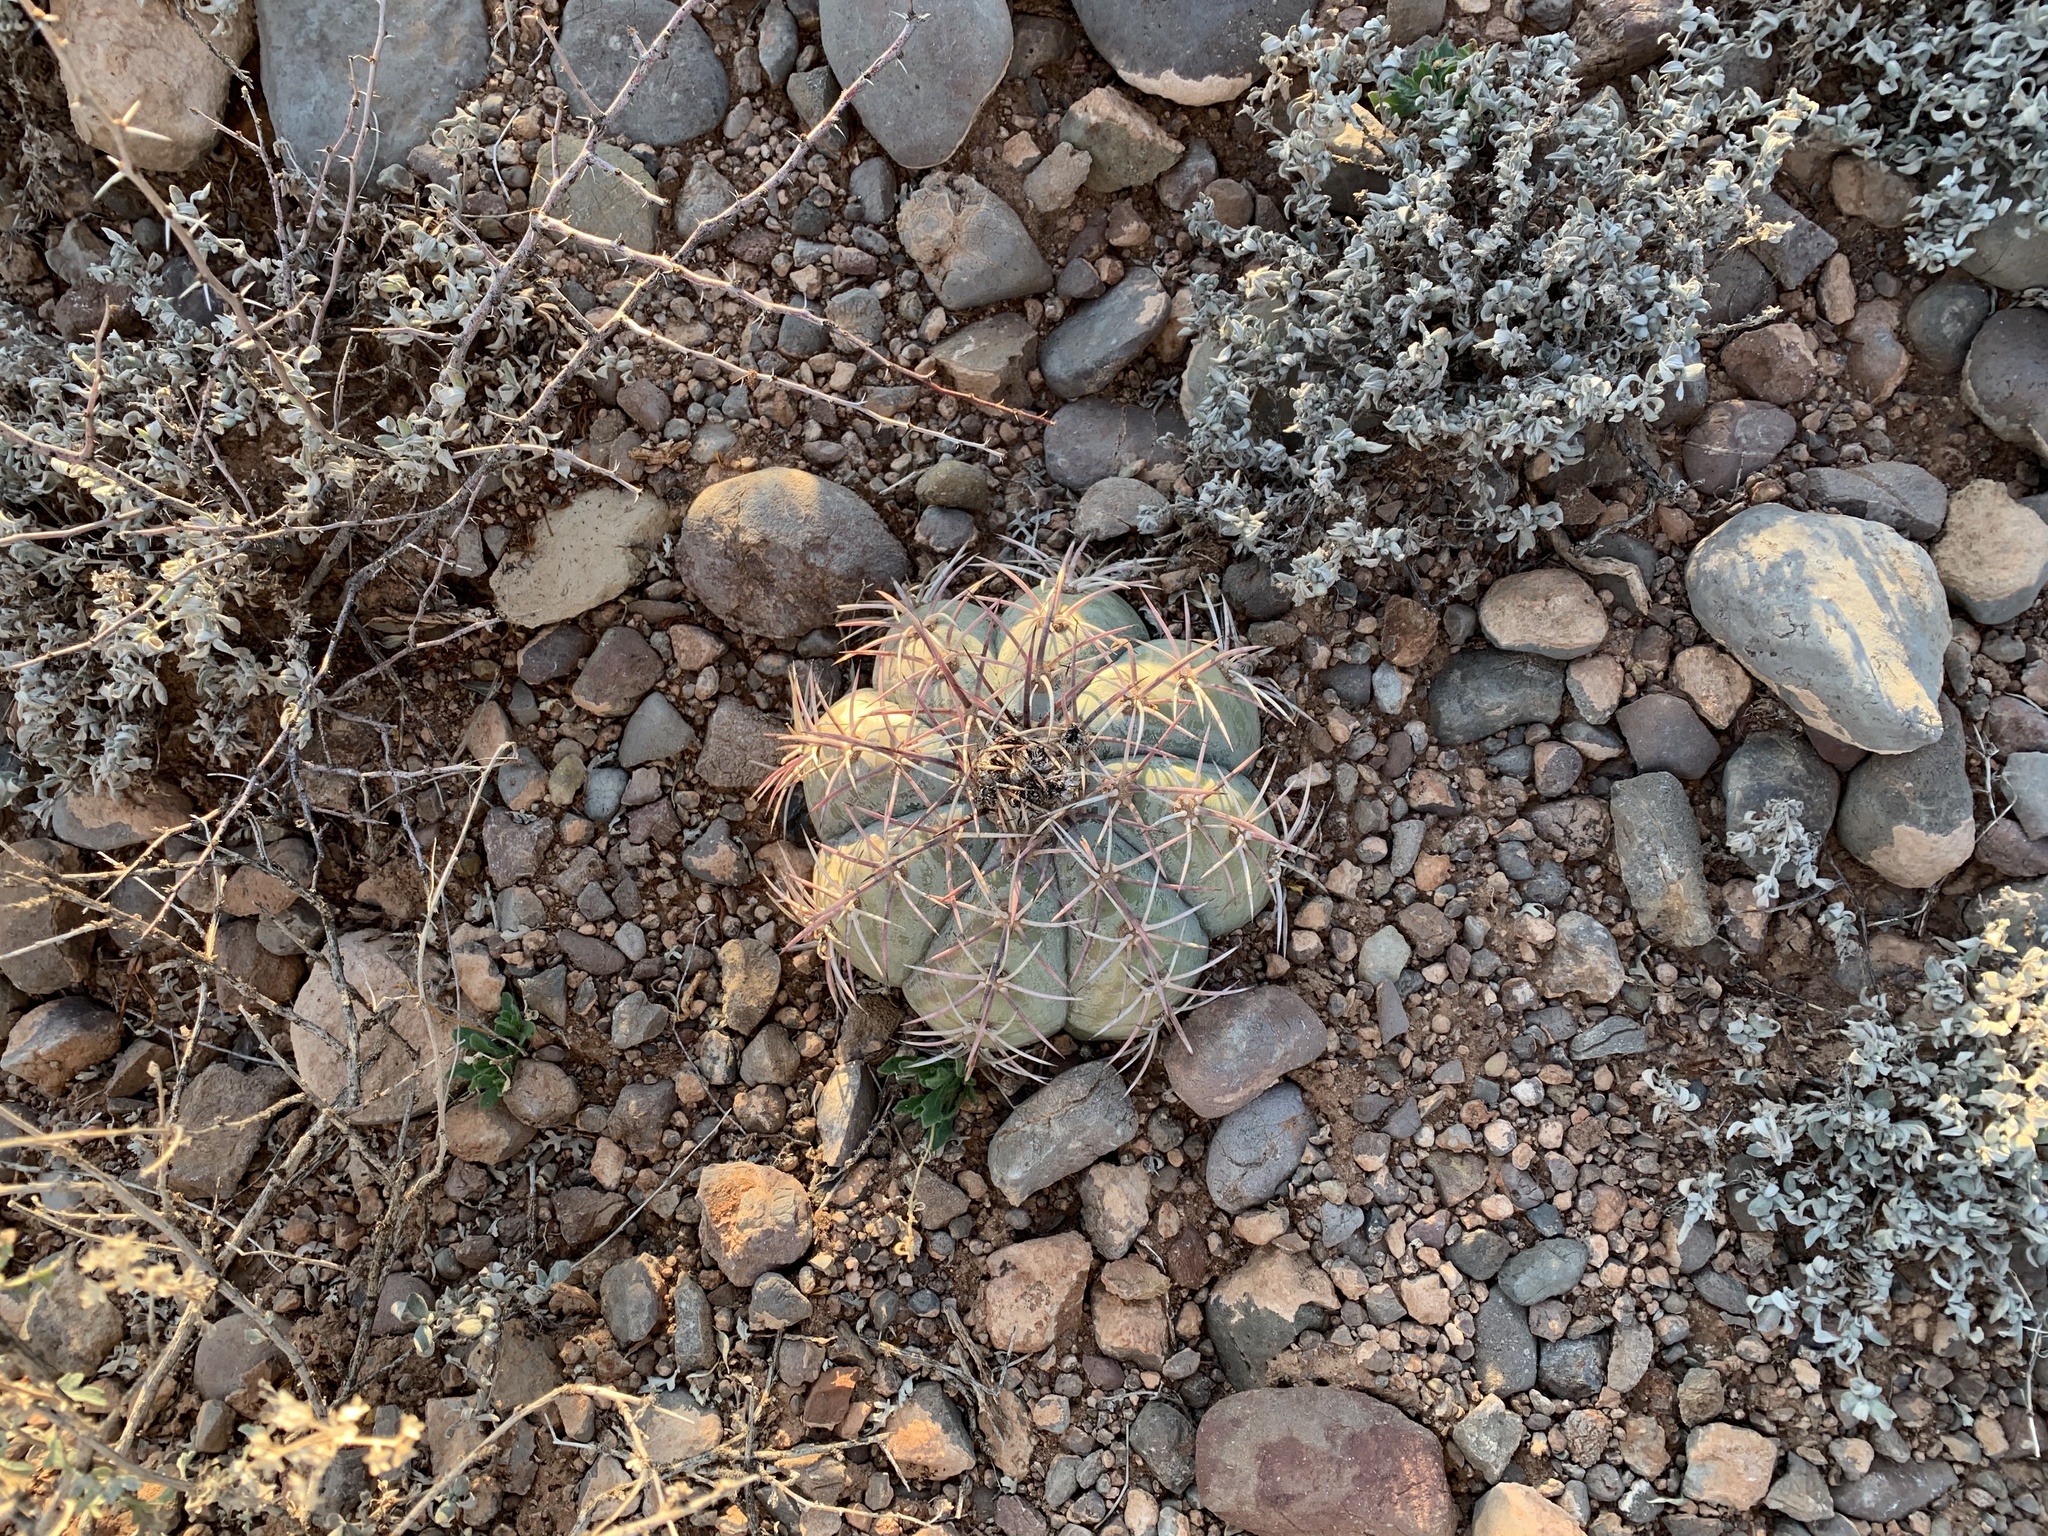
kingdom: Plantae
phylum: Tracheophyta
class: Magnoliopsida
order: Caryophyllales
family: Cactaceae
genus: Echinocactus
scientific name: Echinocactus horizonthalonius
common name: Devilshead
